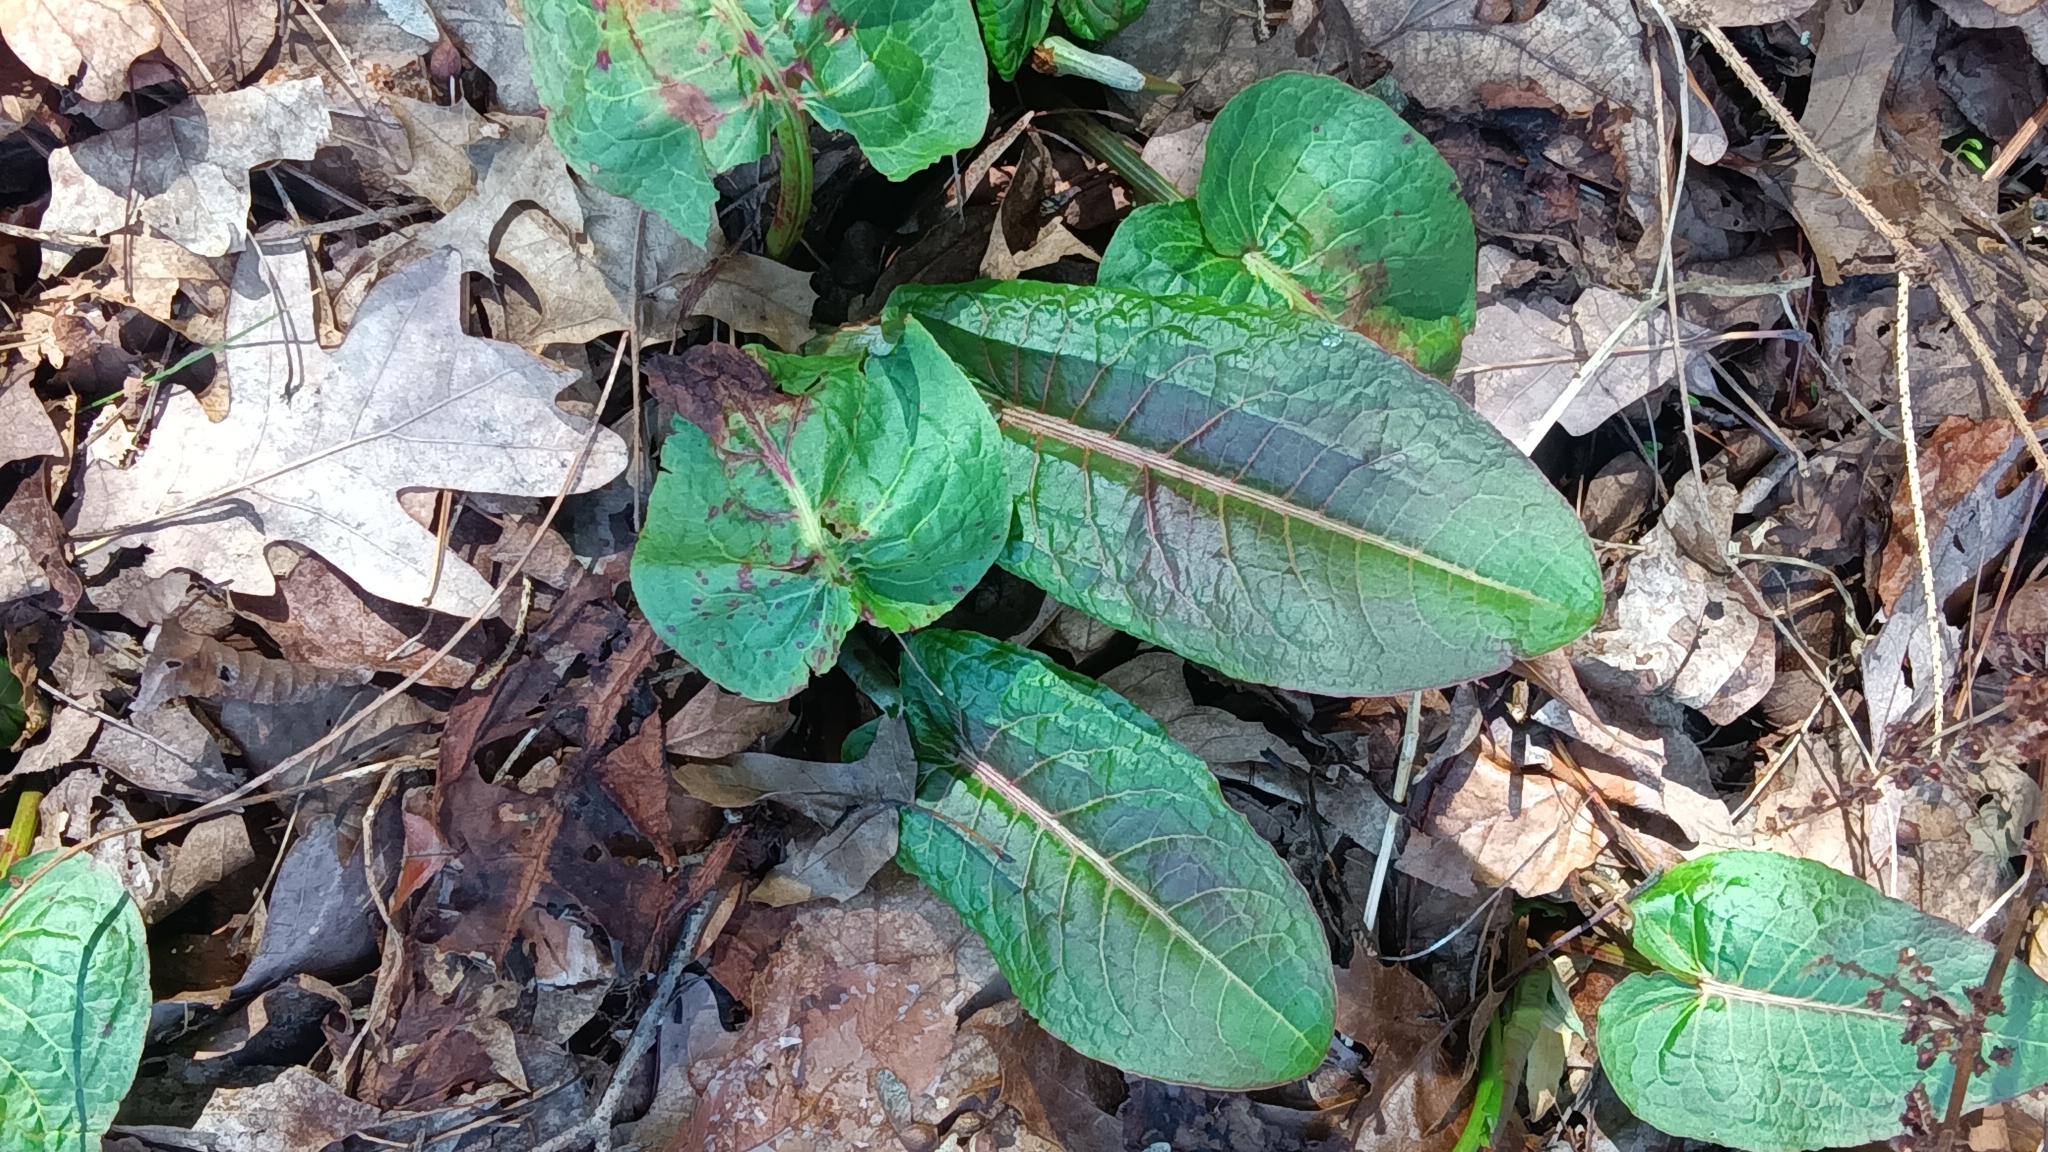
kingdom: Plantae
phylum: Tracheophyta
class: Magnoliopsida
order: Caryophyllales
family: Polygonaceae
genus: Rumex
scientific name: Rumex obtusifolius
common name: Bitter dock
